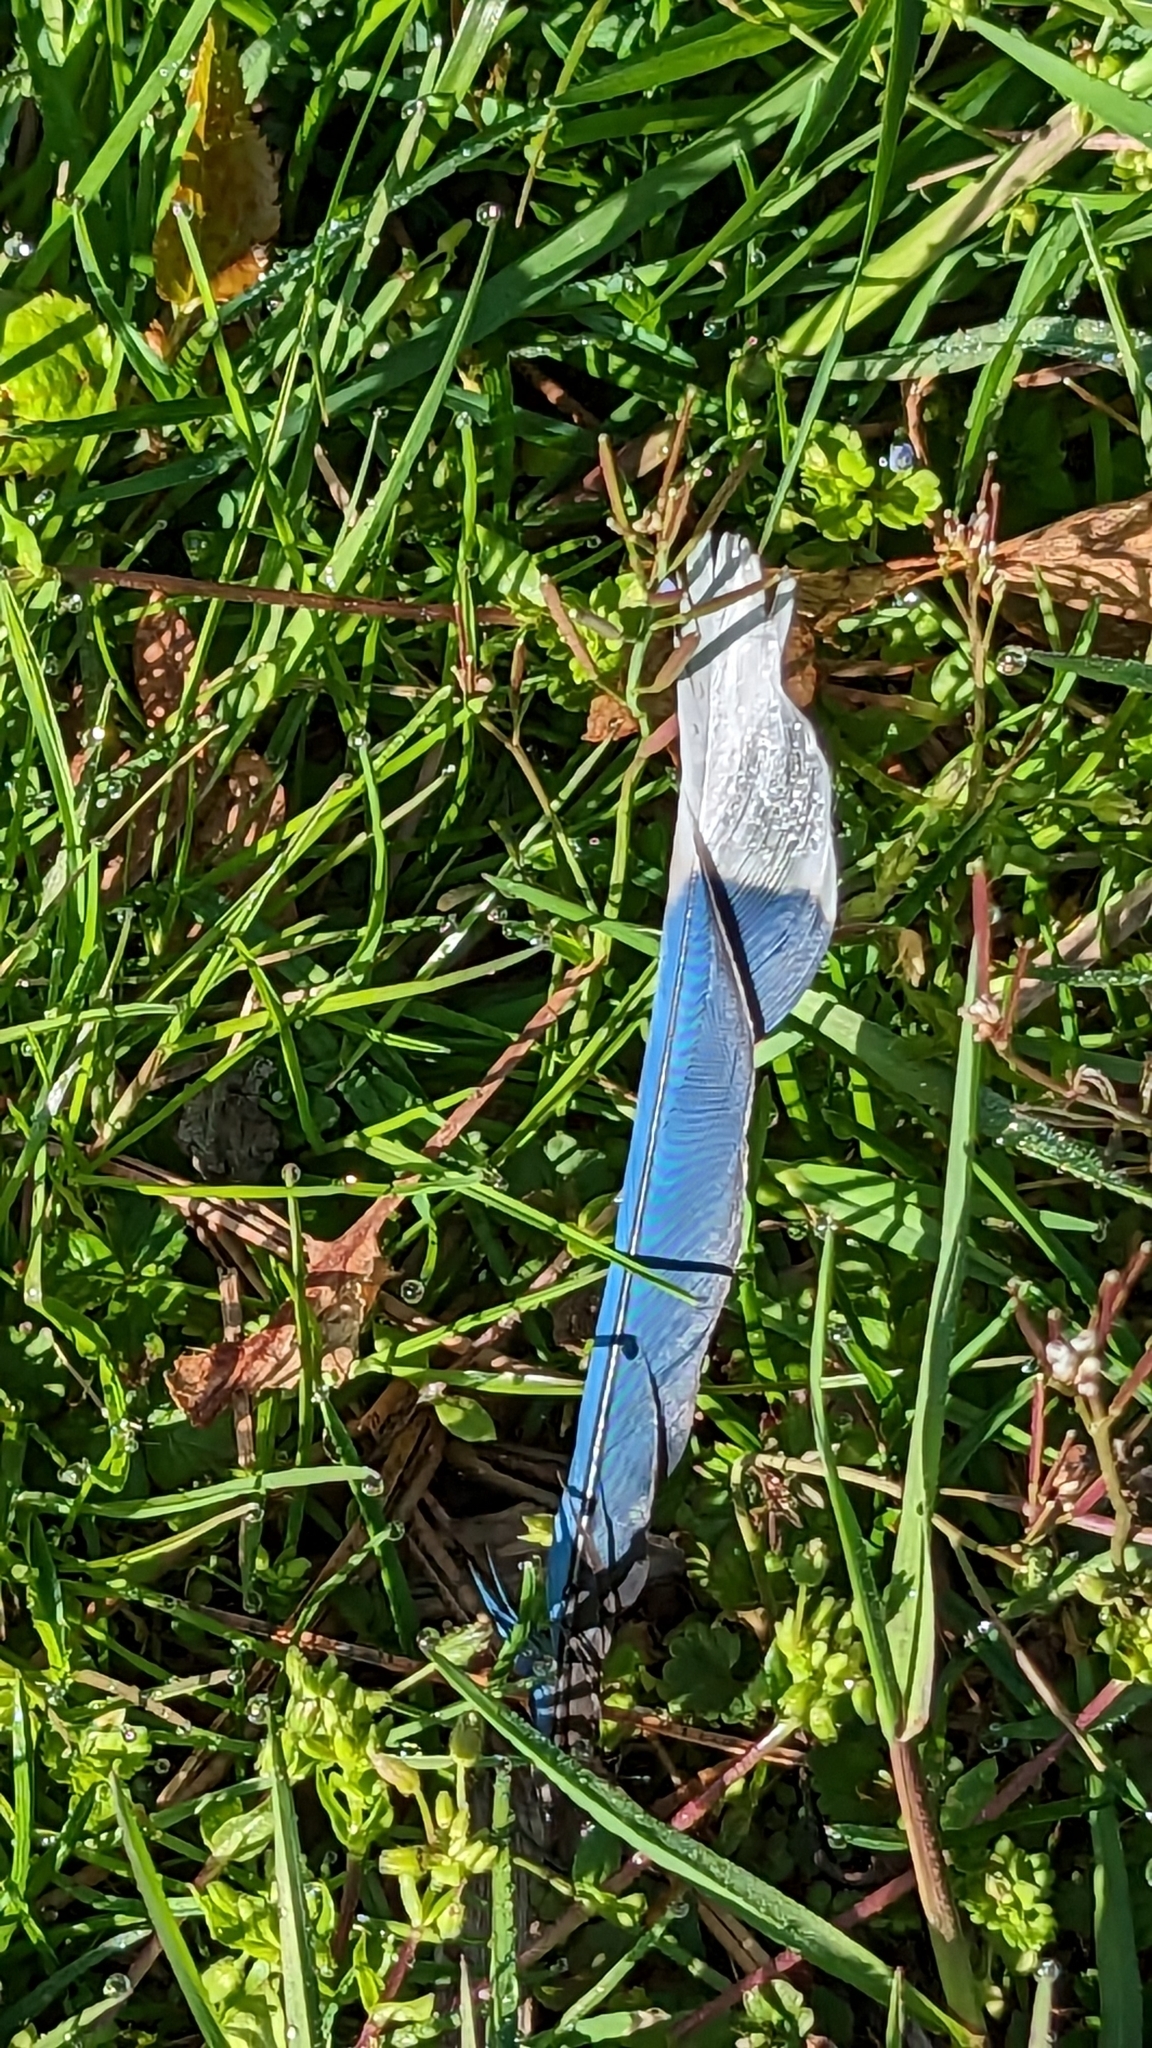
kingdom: Animalia
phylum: Chordata
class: Aves
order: Passeriformes
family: Corvidae
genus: Cyanocitta
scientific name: Cyanocitta cristata
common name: Blue jay
